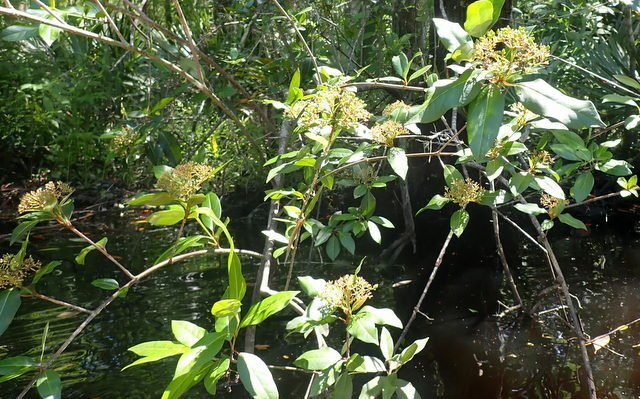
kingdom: Plantae
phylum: Tracheophyta
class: Magnoliopsida
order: Dipsacales
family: Viburnaceae
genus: Viburnum
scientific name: Viburnum nudum
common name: Possum haw
